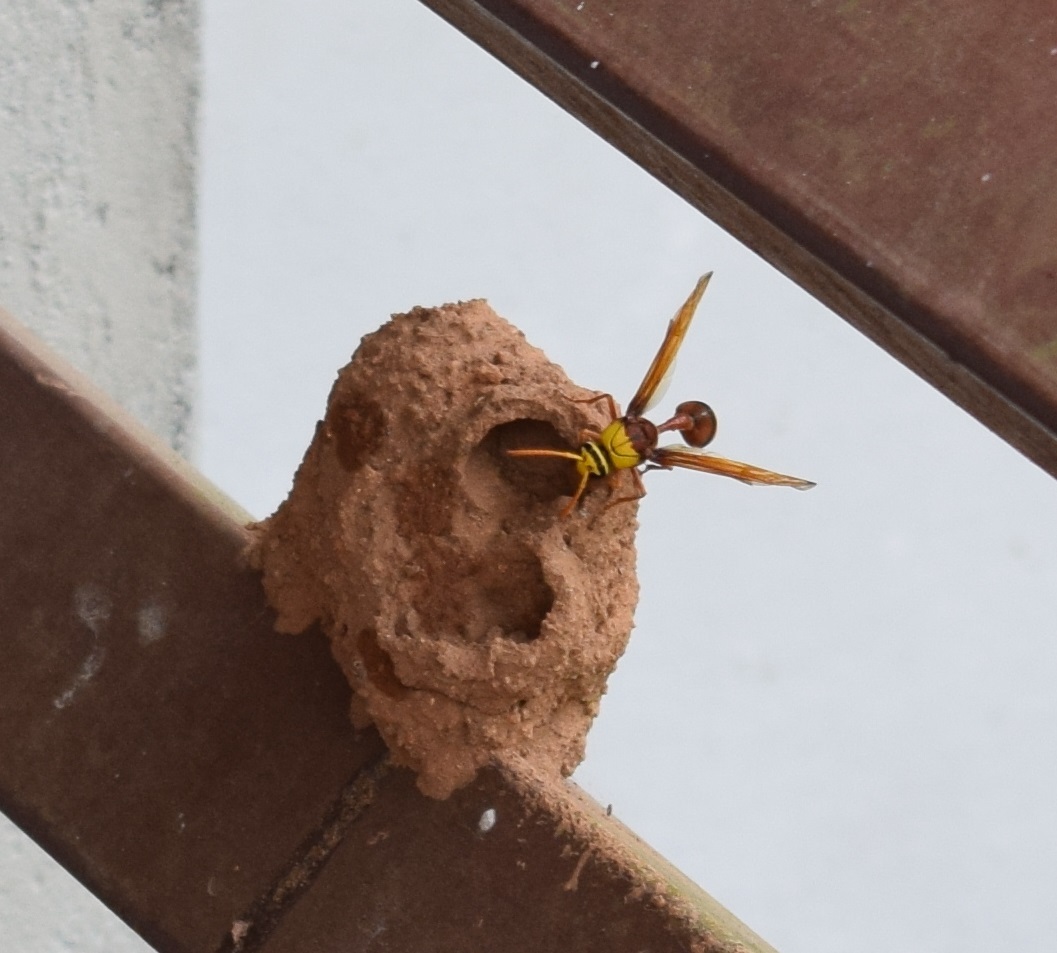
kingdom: Animalia
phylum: Arthropoda
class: Insecta
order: Hymenoptera
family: Eumenidae
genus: Delta
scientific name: Delta pyriforme
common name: Wasp
